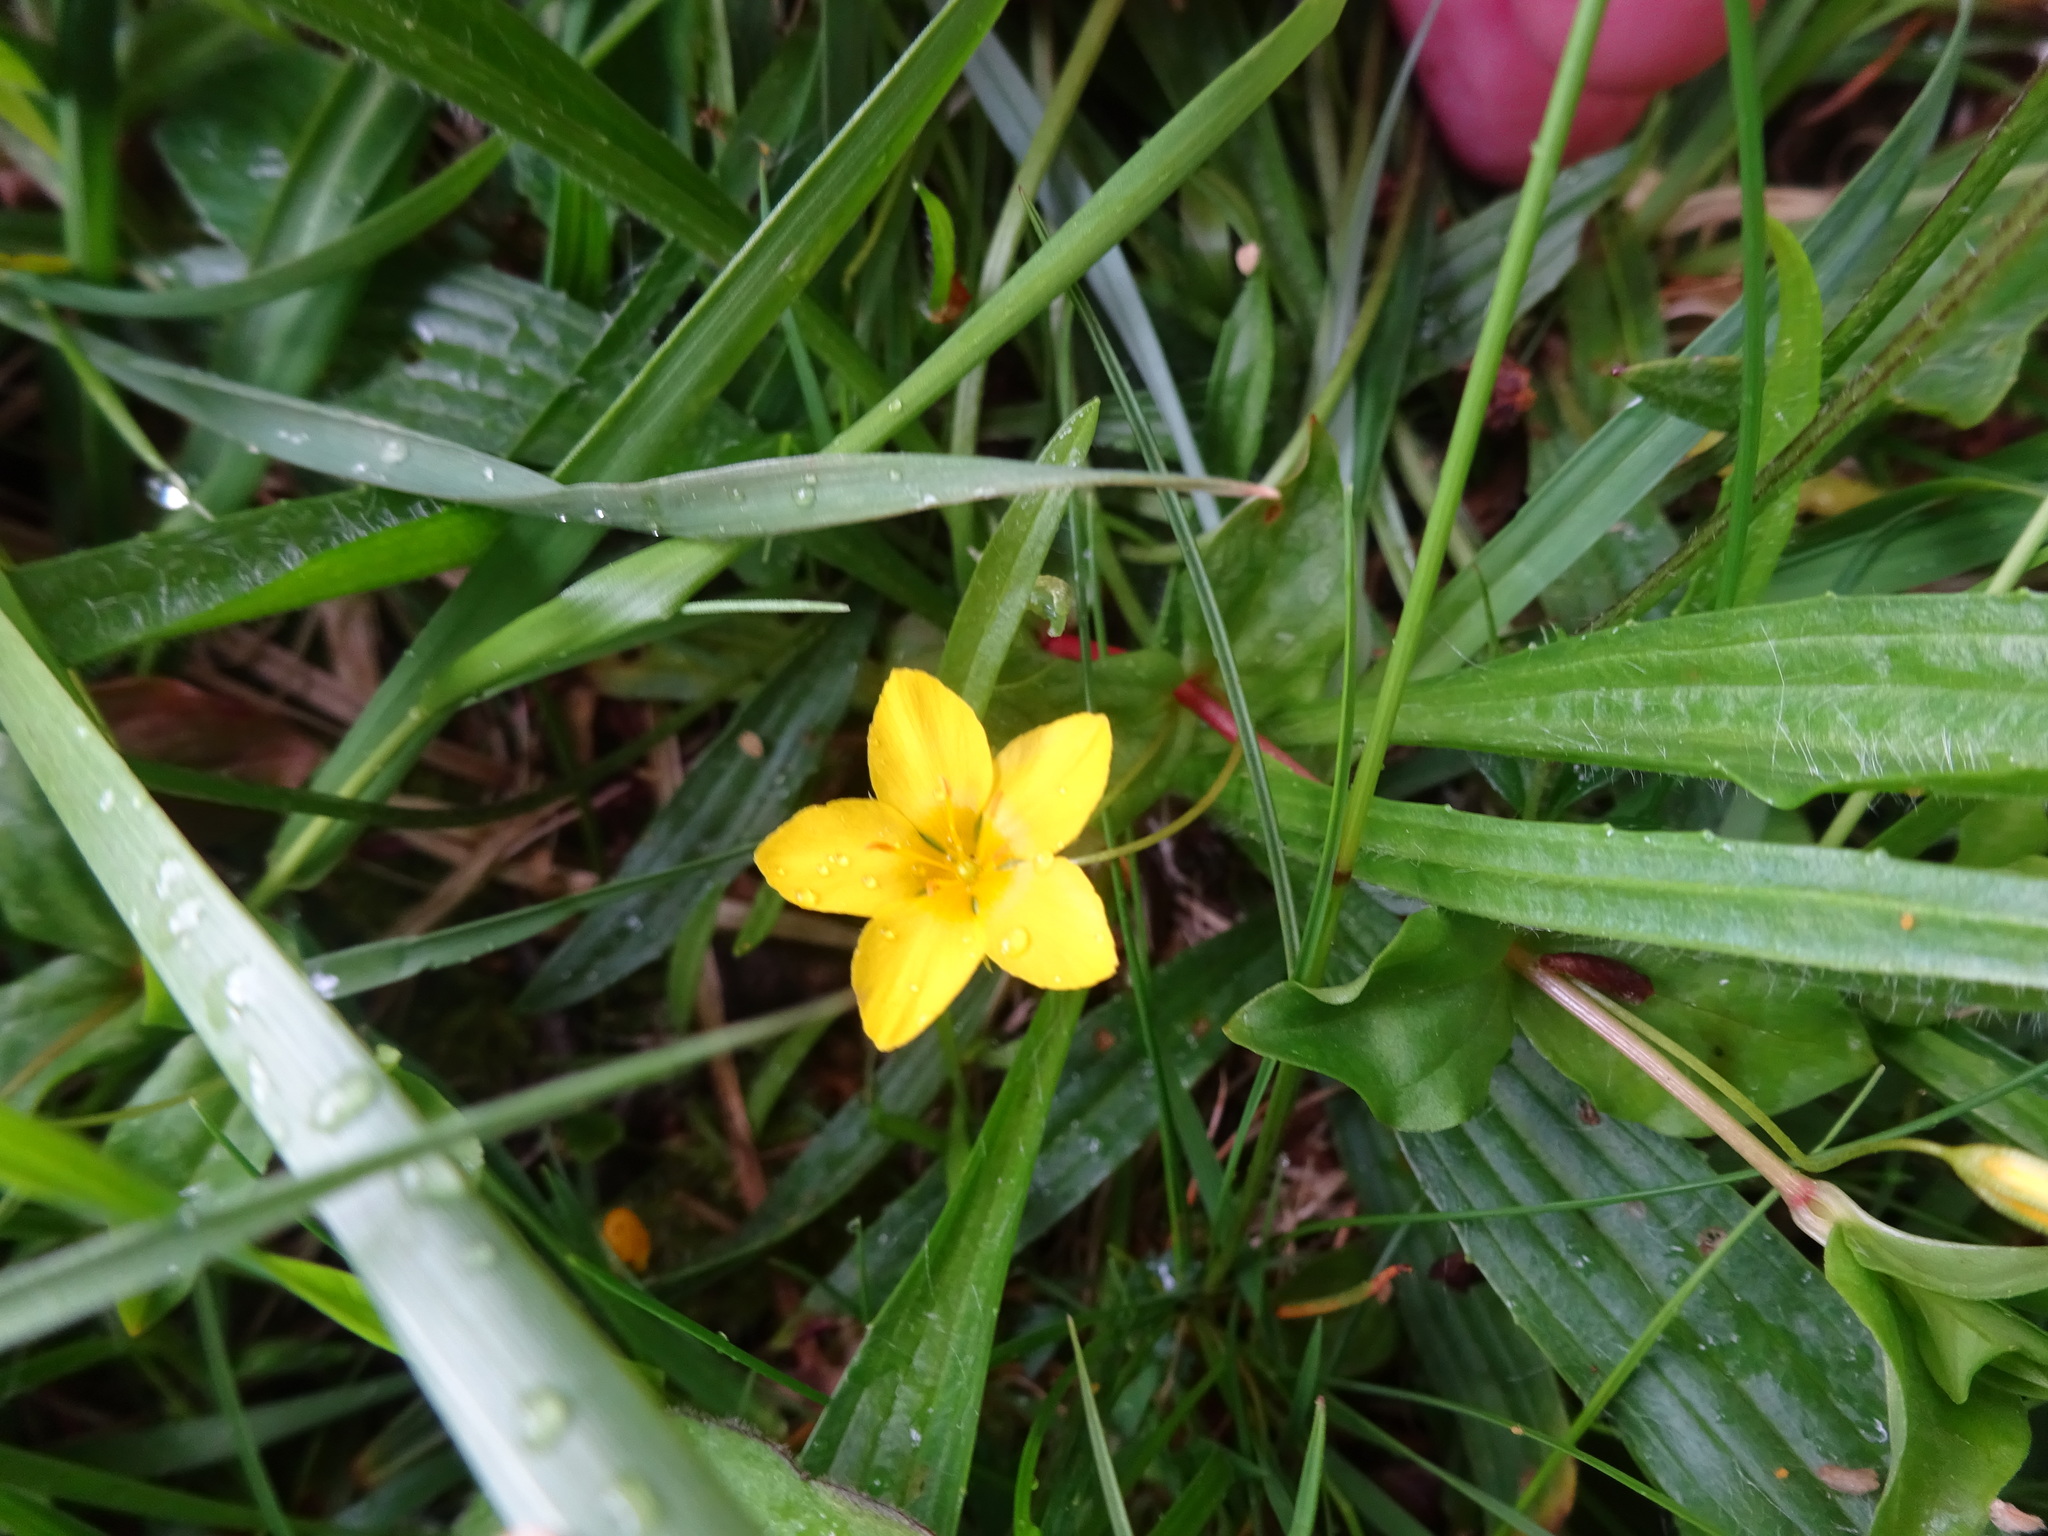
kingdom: Plantae
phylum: Tracheophyta
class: Magnoliopsida
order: Ericales
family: Primulaceae
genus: Lysimachia
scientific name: Lysimachia nemorum
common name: Yellow pimpernel
